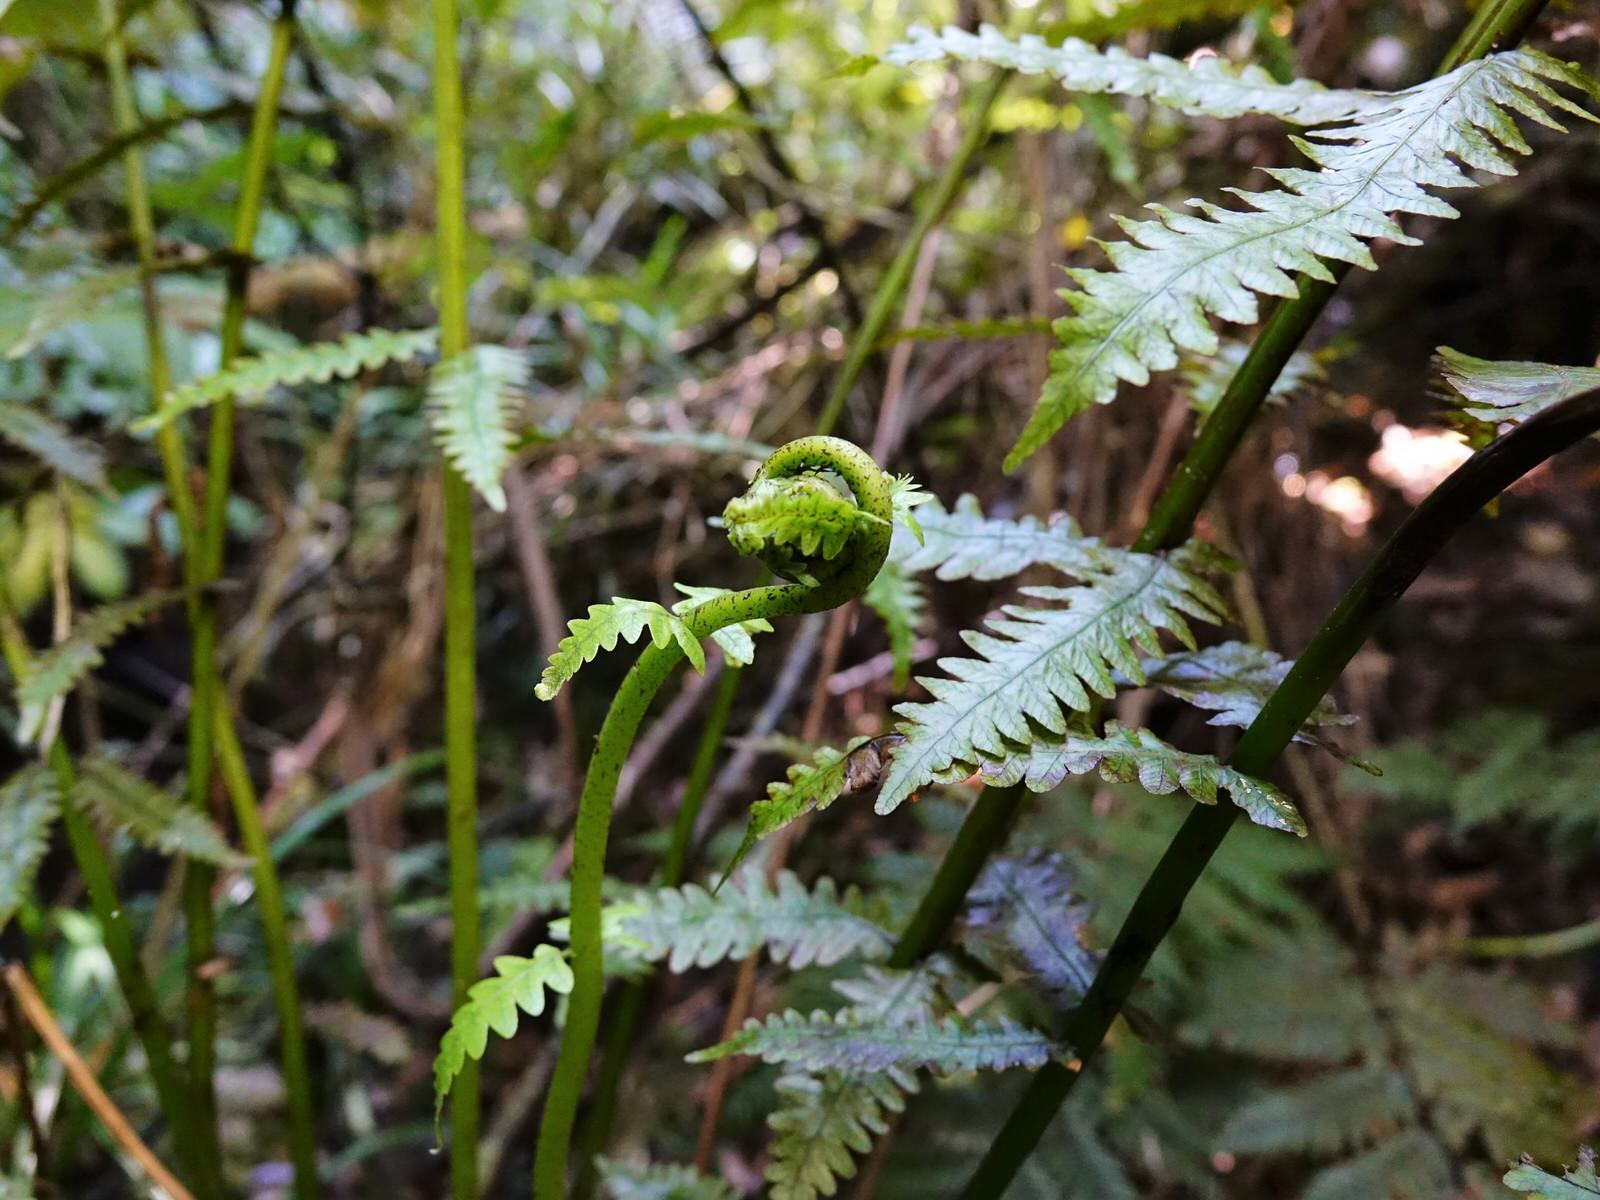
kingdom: Plantae
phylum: Tracheophyta
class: Polypodiopsida
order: Polypodiales
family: Thelypteridaceae
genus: Pakau
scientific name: Pakau pennigera
